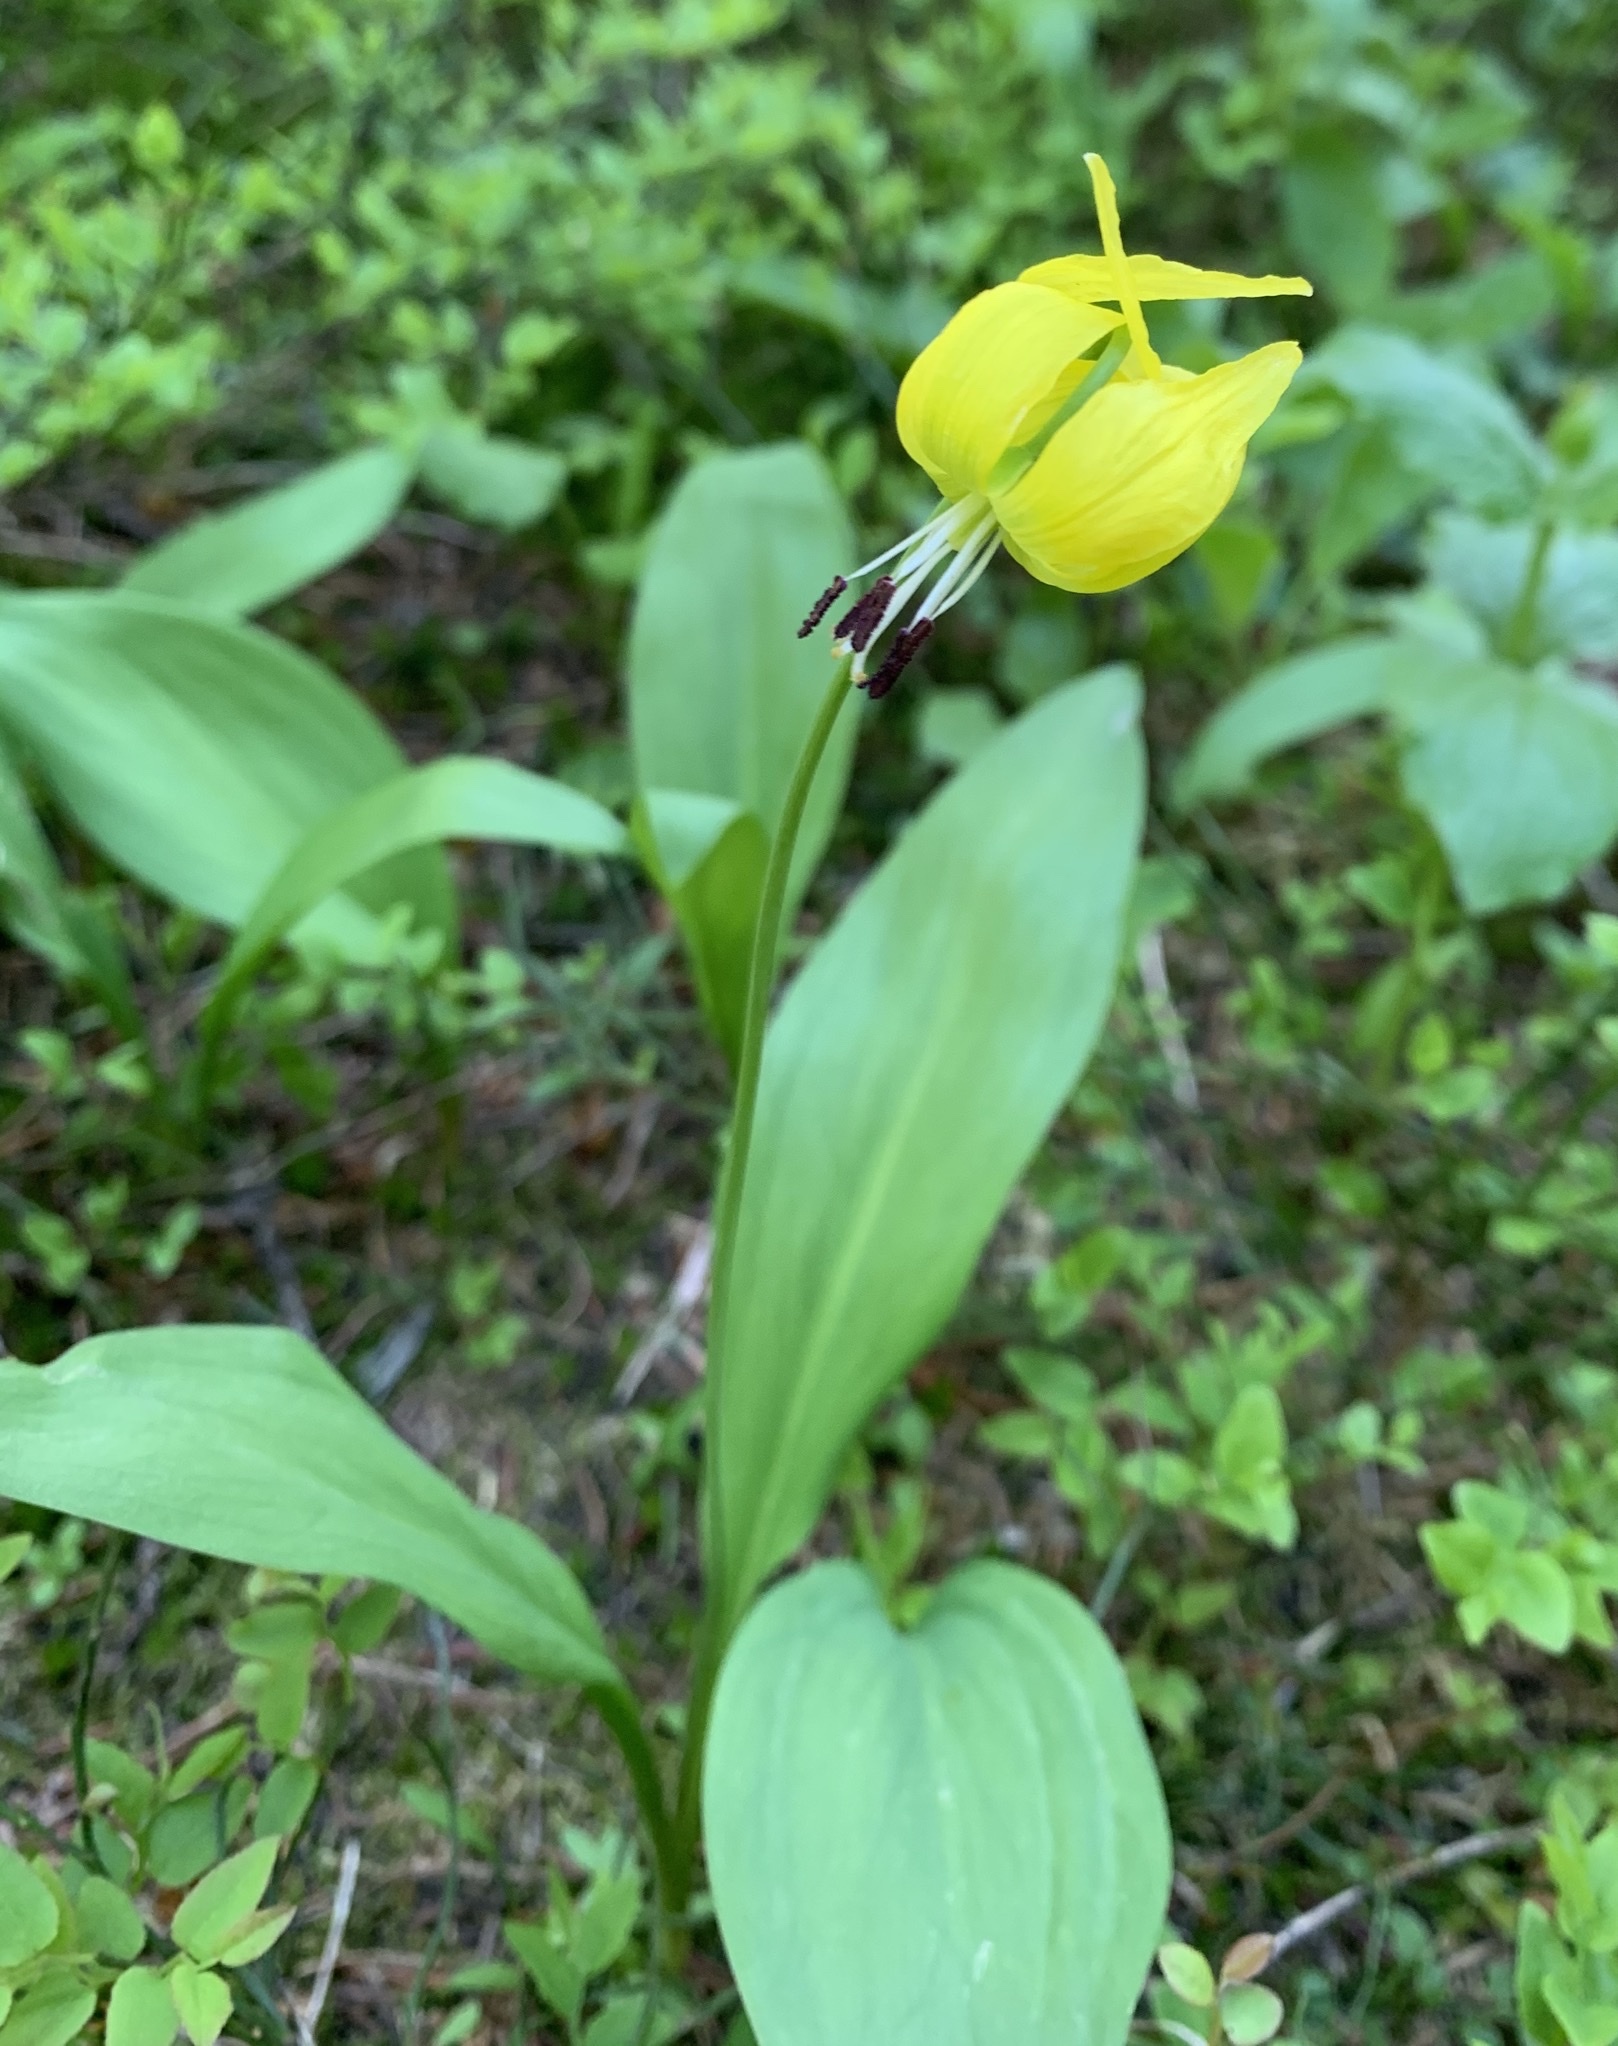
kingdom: Plantae
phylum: Tracheophyta
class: Liliopsida
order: Liliales
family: Liliaceae
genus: Erythronium
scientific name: Erythronium grandiflorum
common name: Avalanche-lily
